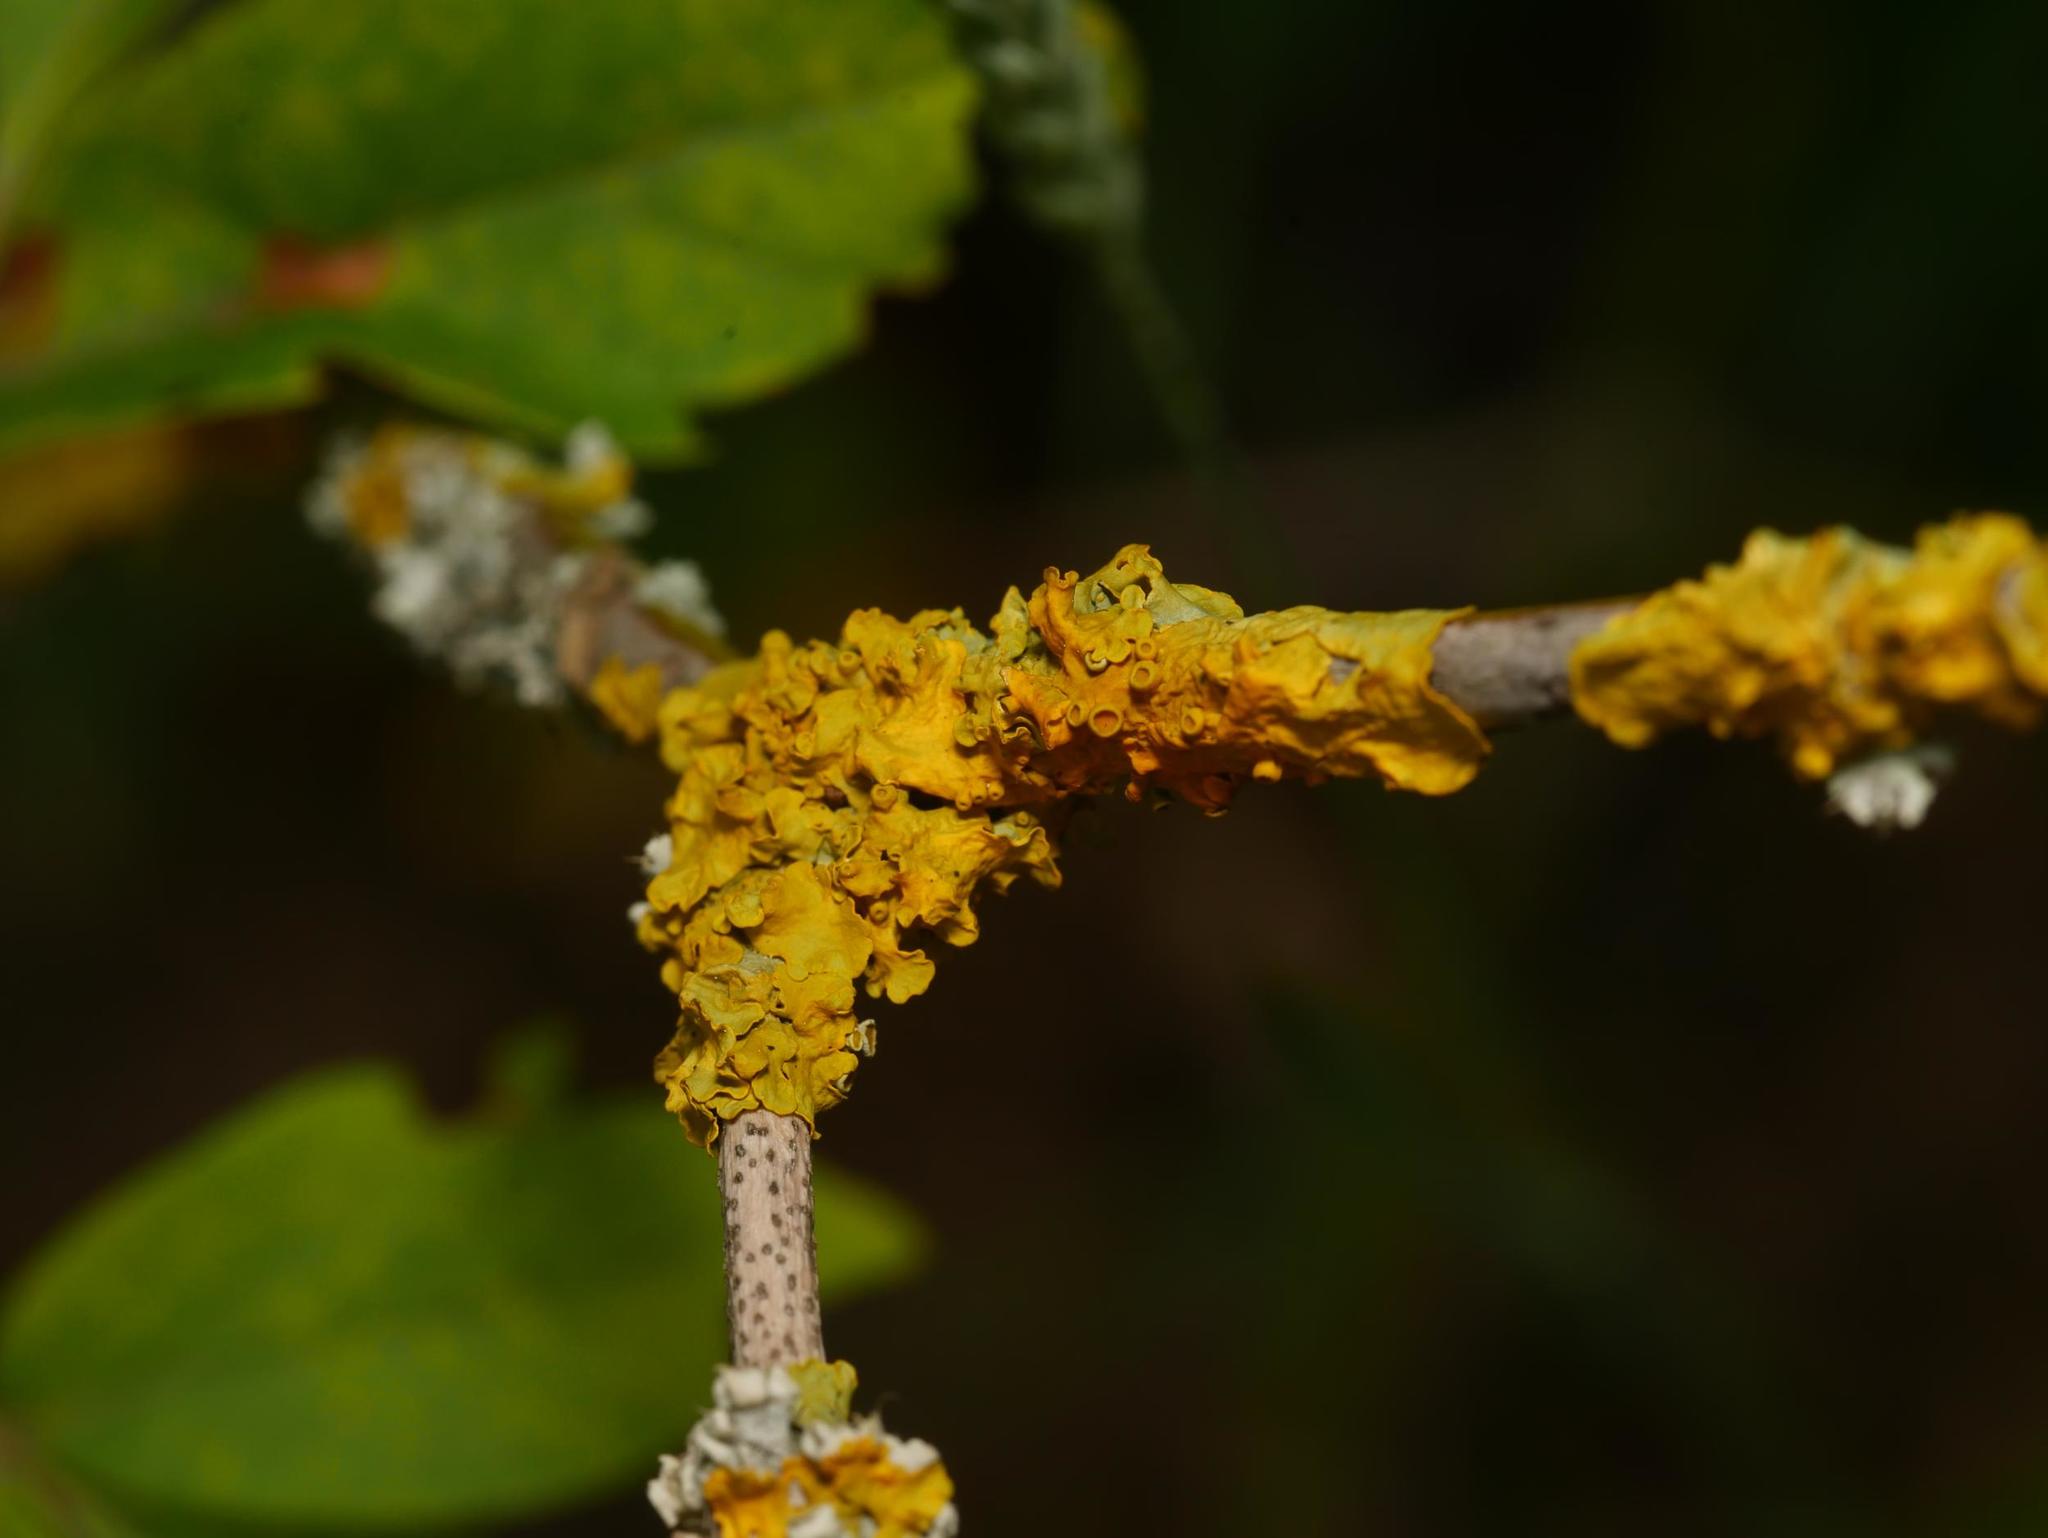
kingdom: Fungi
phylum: Ascomycota
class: Lecanoromycetes
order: Teloschistales
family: Teloschistaceae
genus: Xanthoria
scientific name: Xanthoria parietina
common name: Common orange lichen
